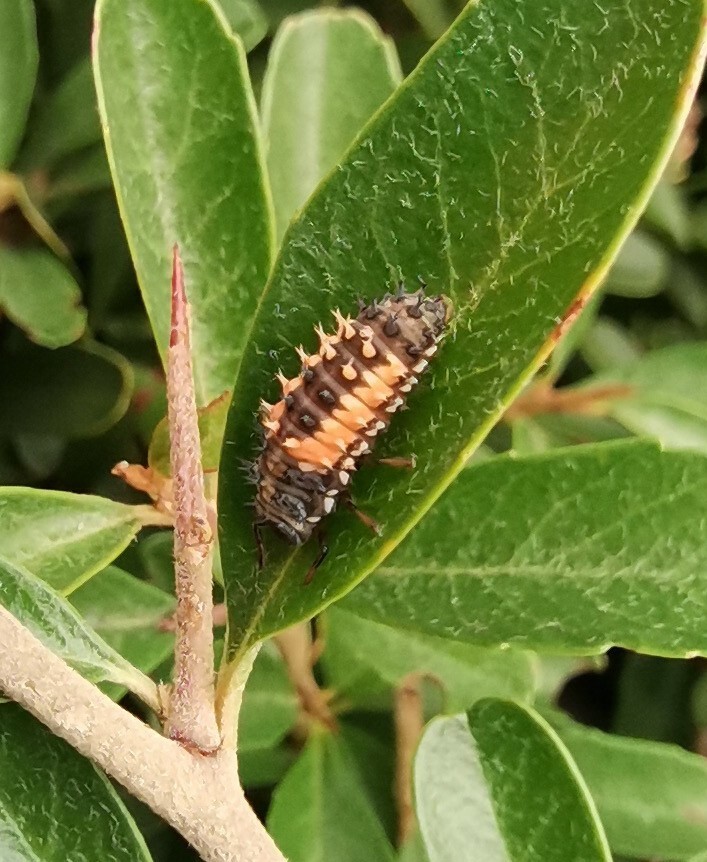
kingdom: Animalia
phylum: Arthropoda
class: Insecta
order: Coleoptera
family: Coccinellidae
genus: Harmonia
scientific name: Harmonia axyridis
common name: Harlequin ladybird
